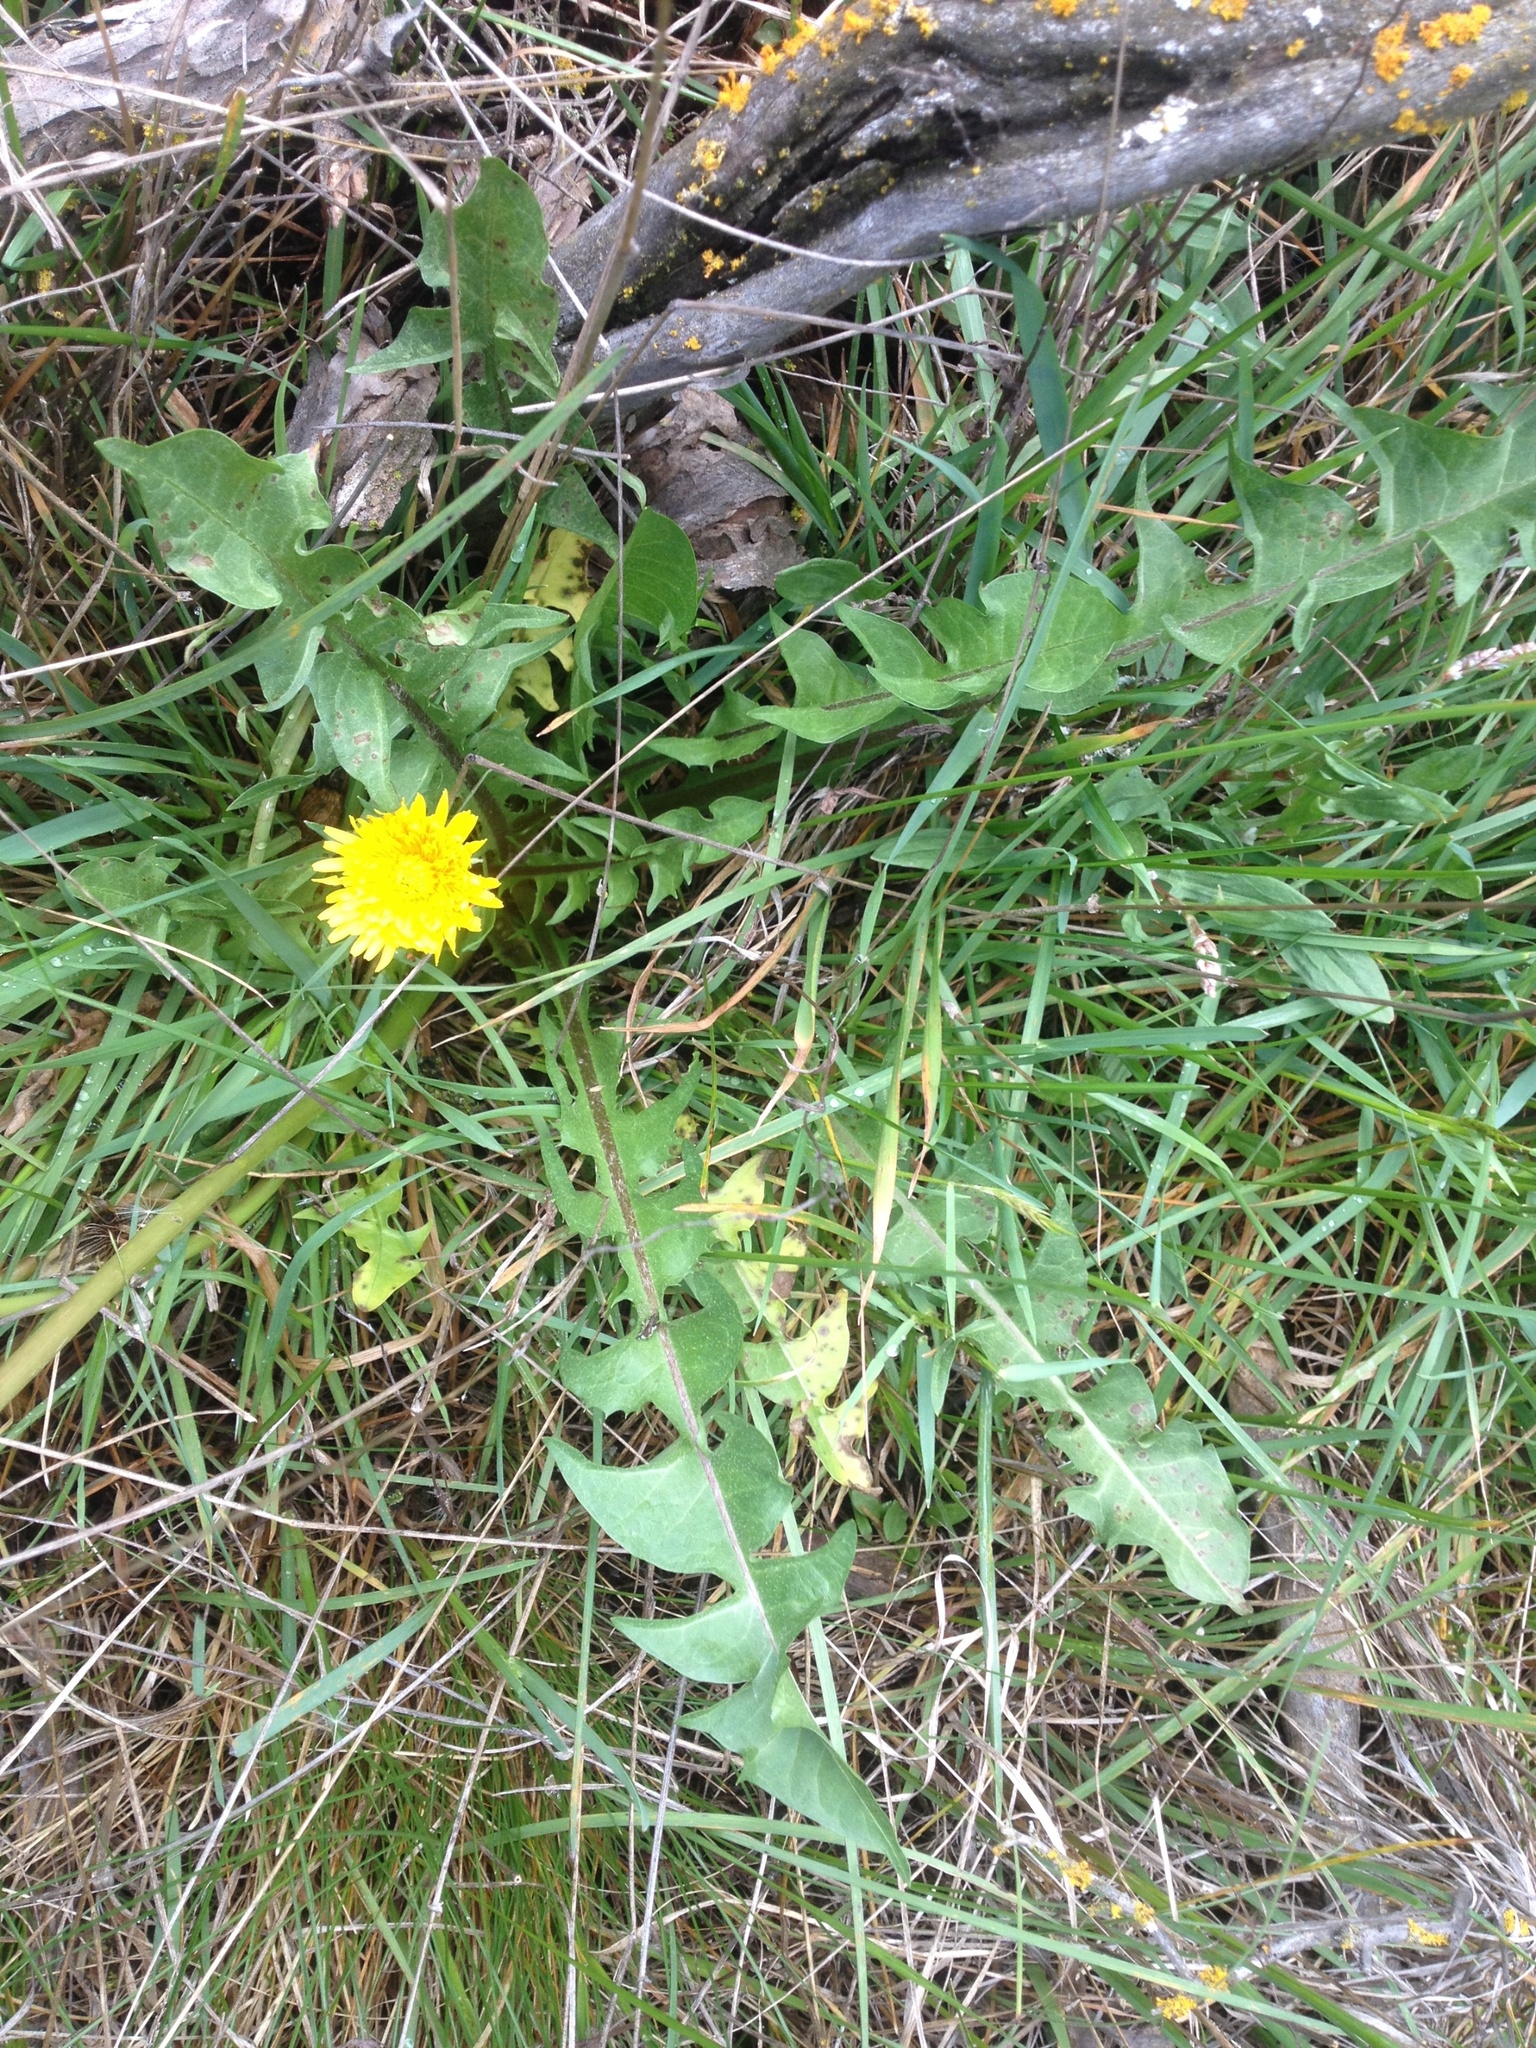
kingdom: Plantae
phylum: Tracheophyta
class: Magnoliopsida
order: Asterales
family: Asteraceae
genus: Taraxacum
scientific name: Taraxacum officinale
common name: Common dandelion
